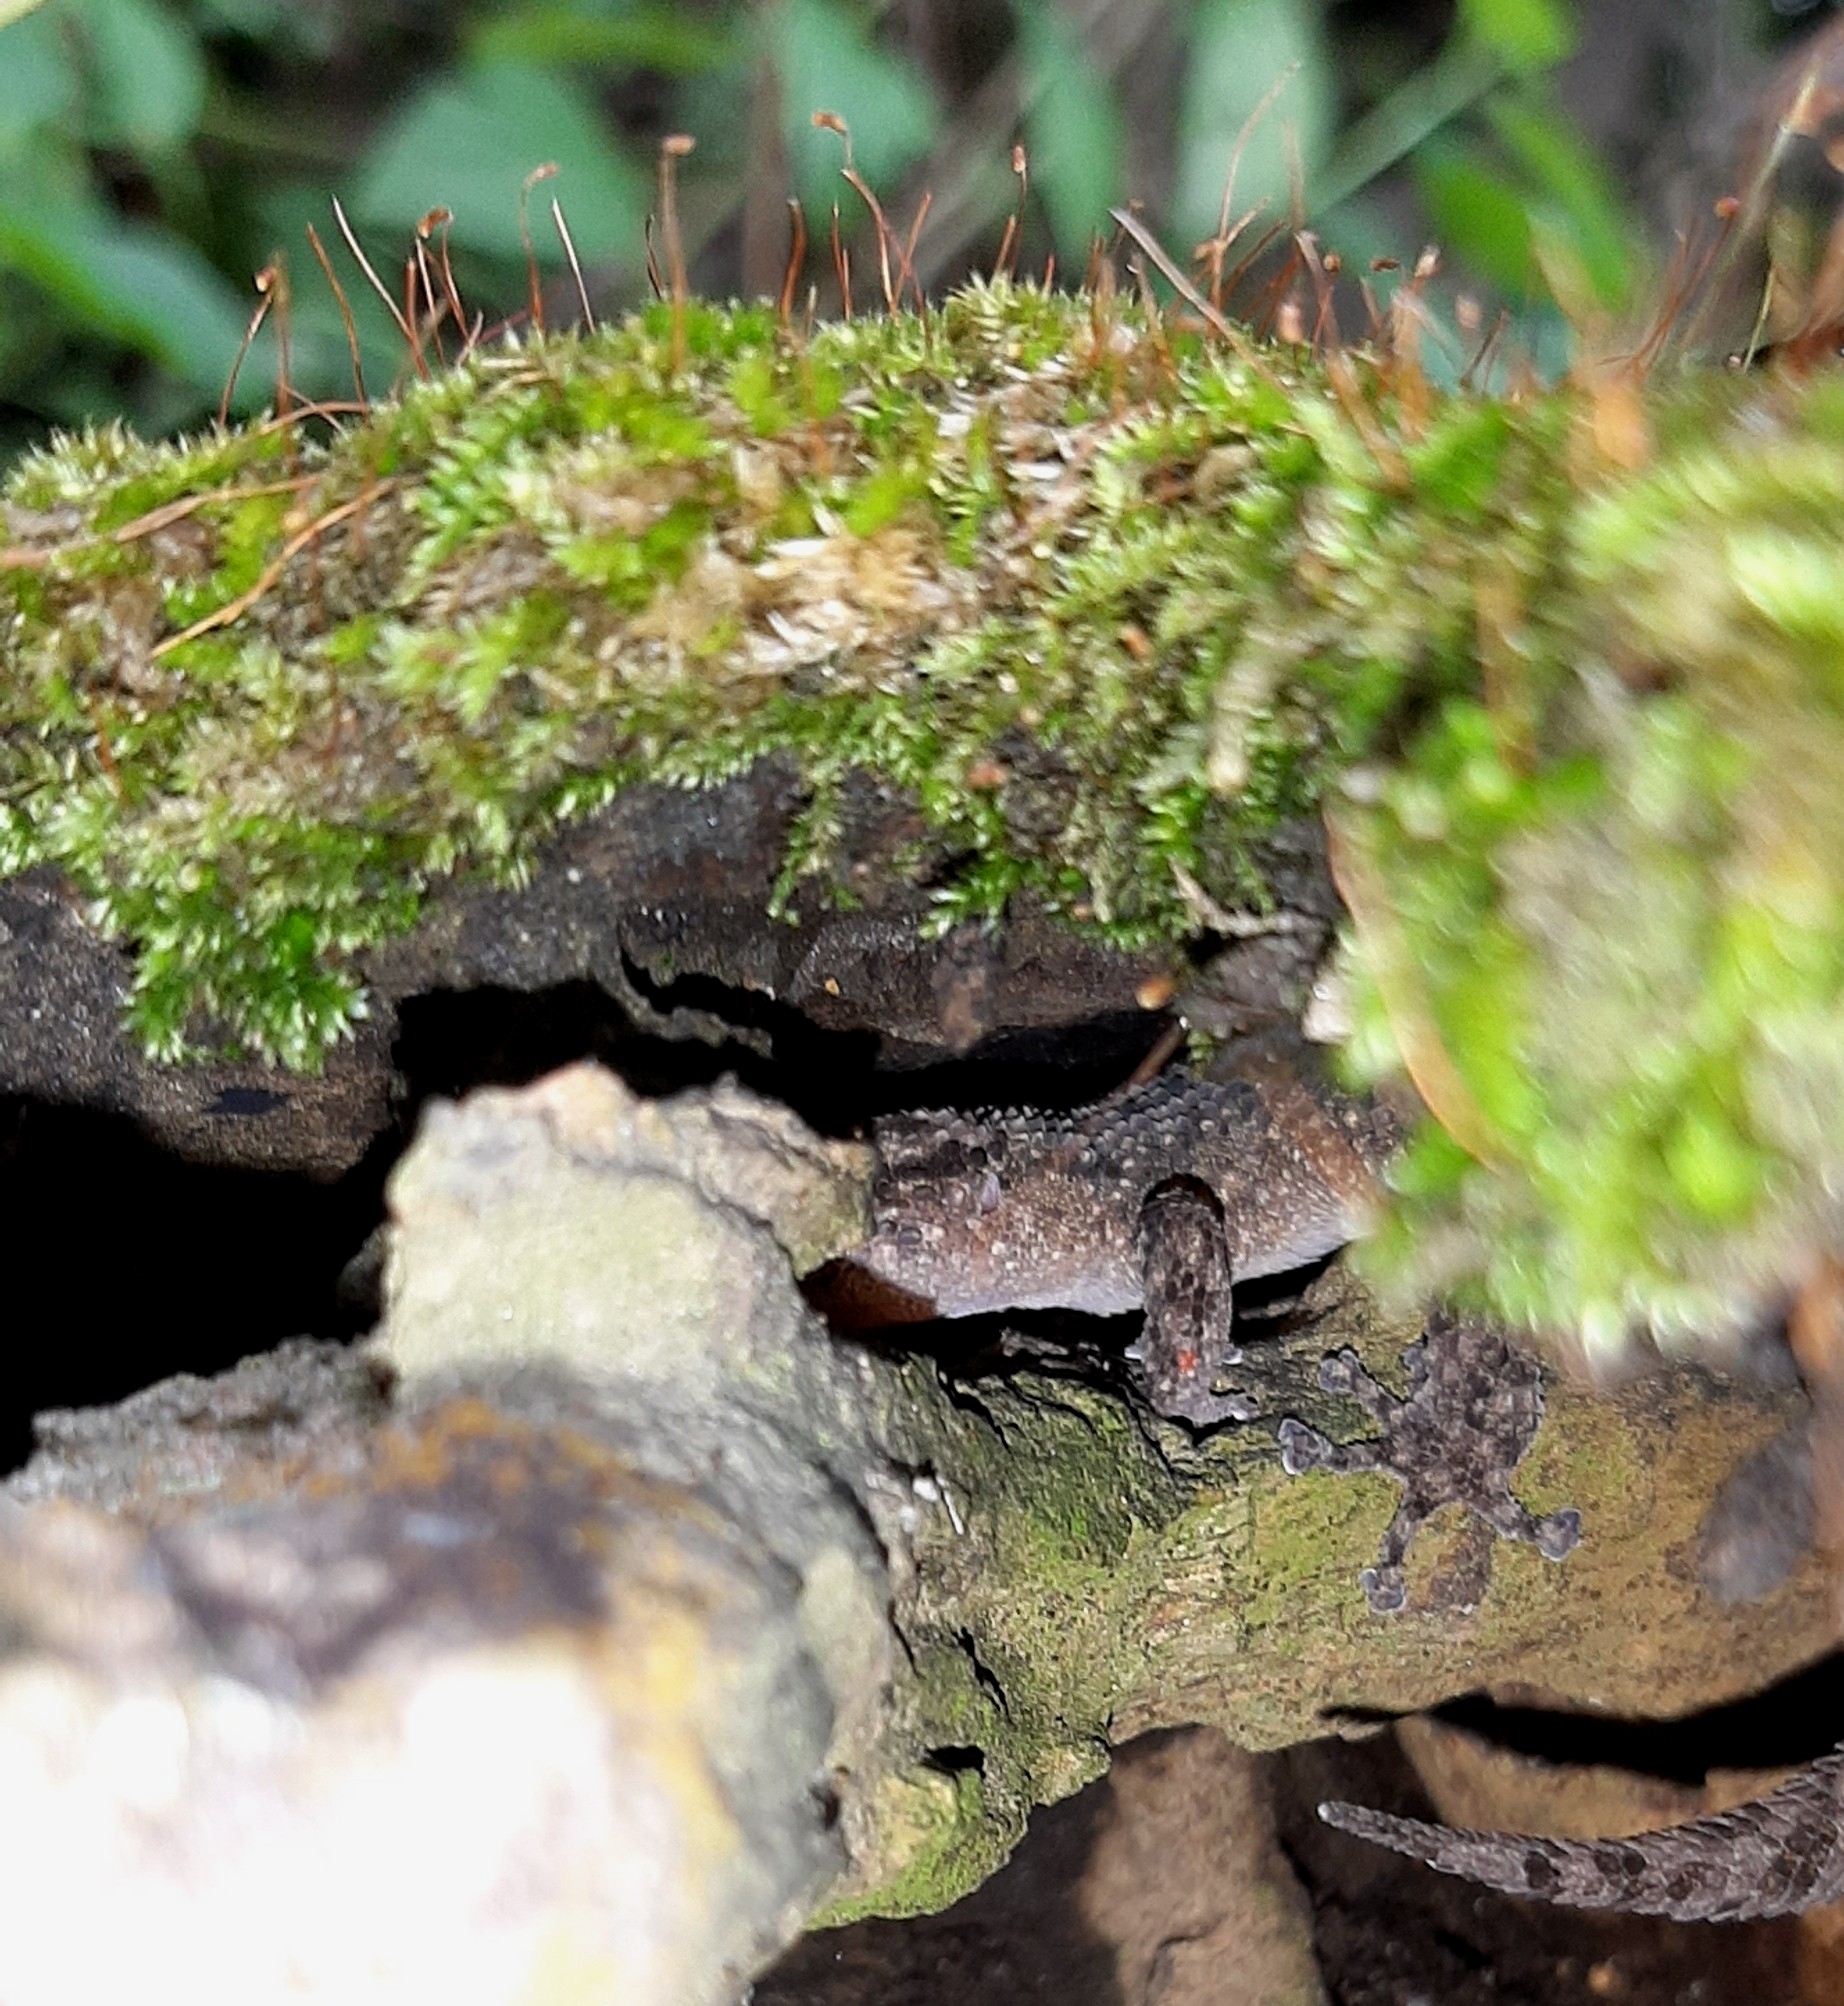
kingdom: Animalia
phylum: Chordata
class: Squamata
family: Phyllodactylidae
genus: Phyllodactylus
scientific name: Phyllodactylus ventralis
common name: Margarita leaf-toed gecko
